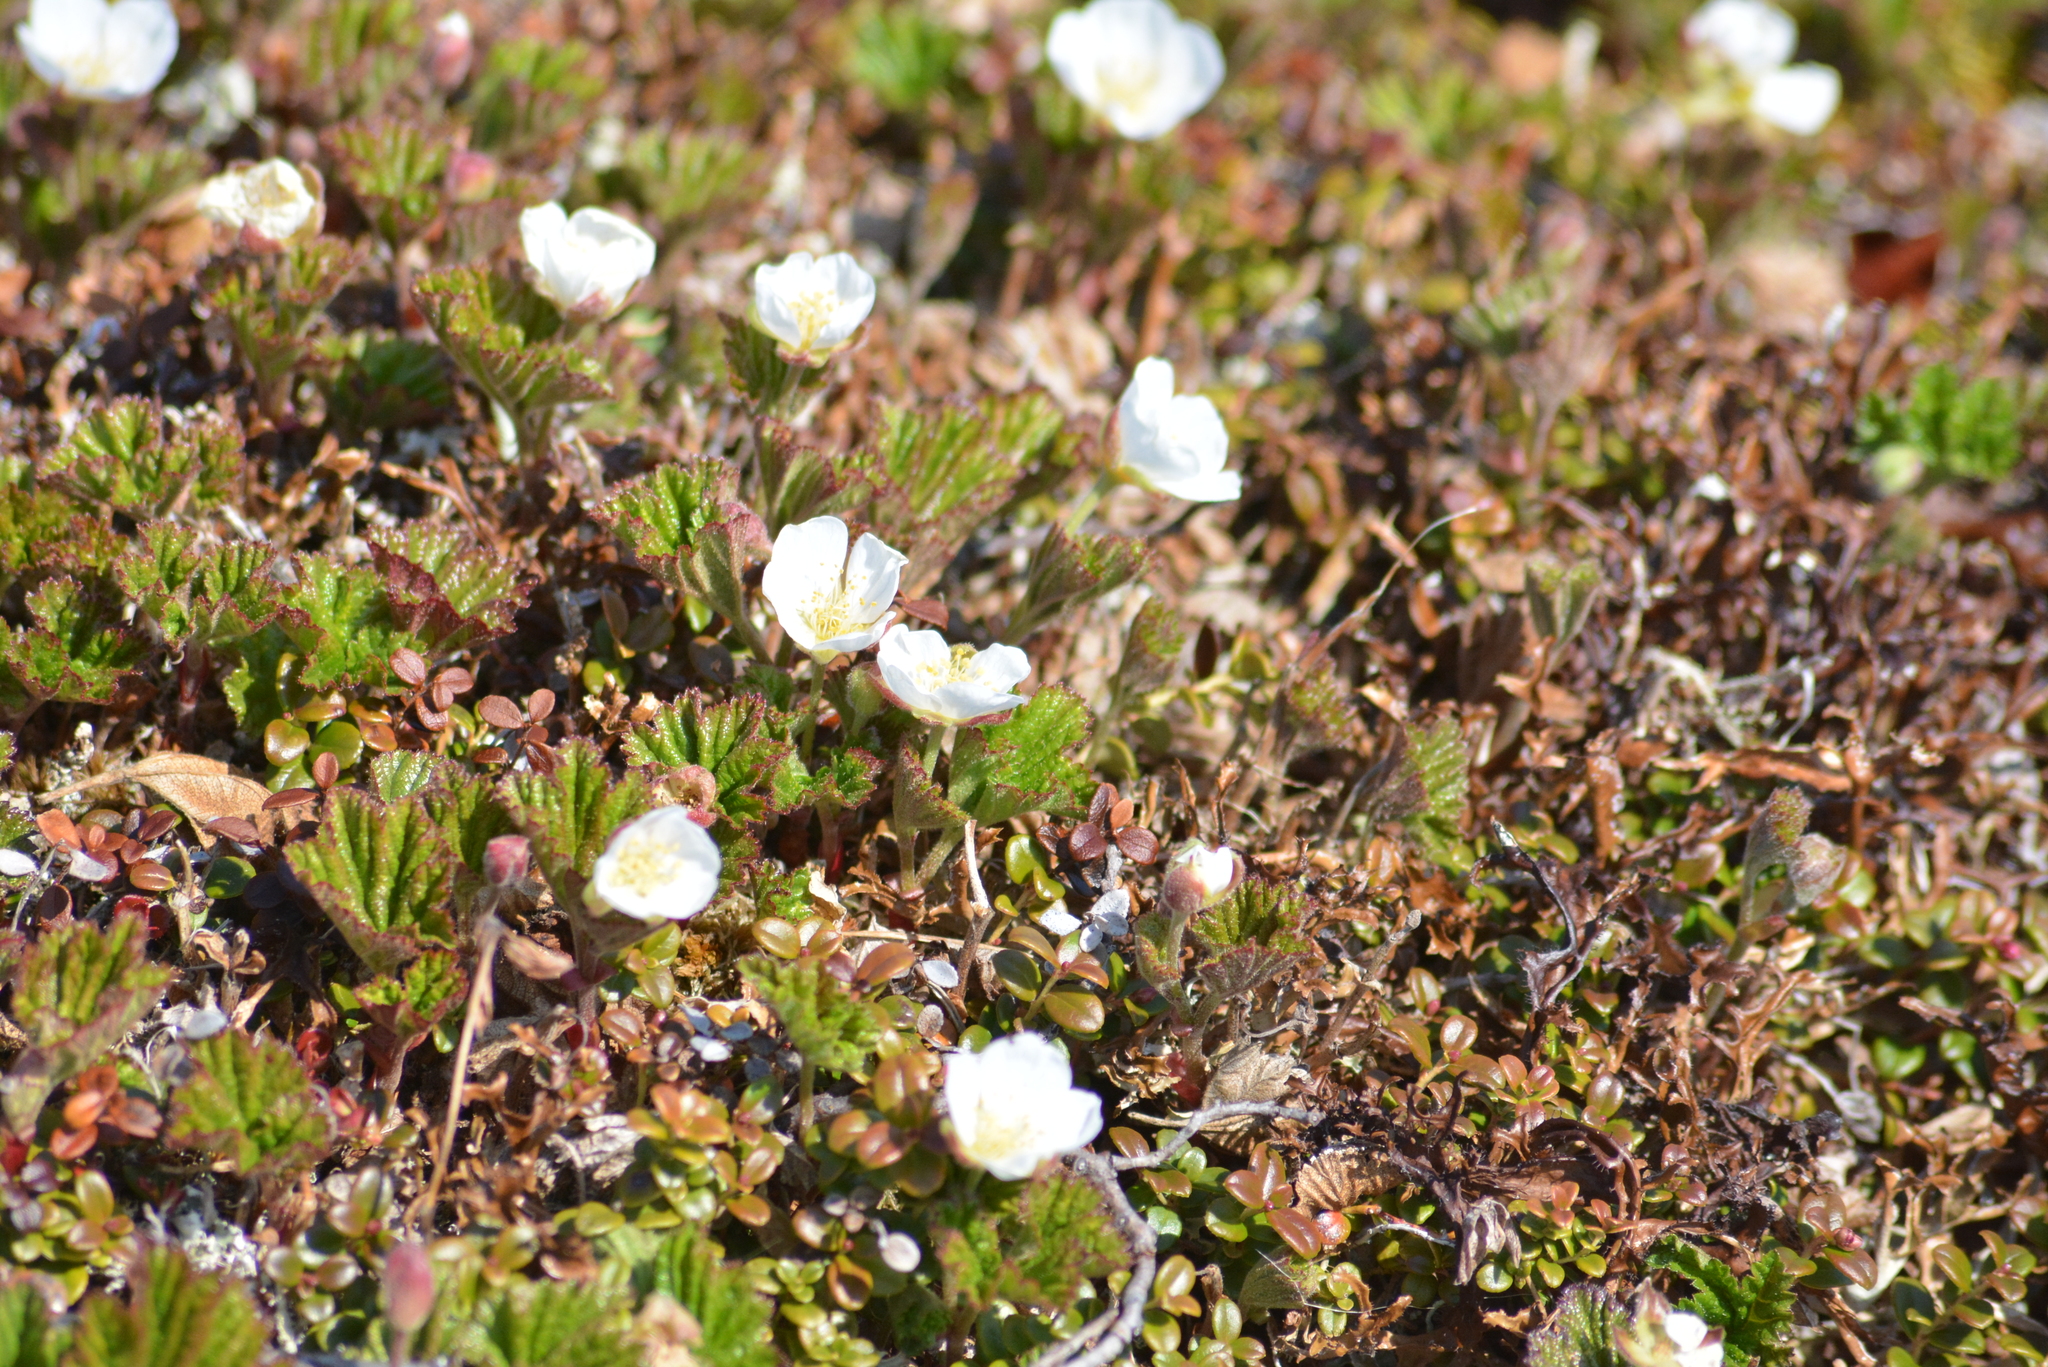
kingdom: Plantae
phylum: Tracheophyta
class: Magnoliopsida
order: Rosales
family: Rosaceae
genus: Rubus
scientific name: Rubus chamaemorus
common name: Cloudberry
